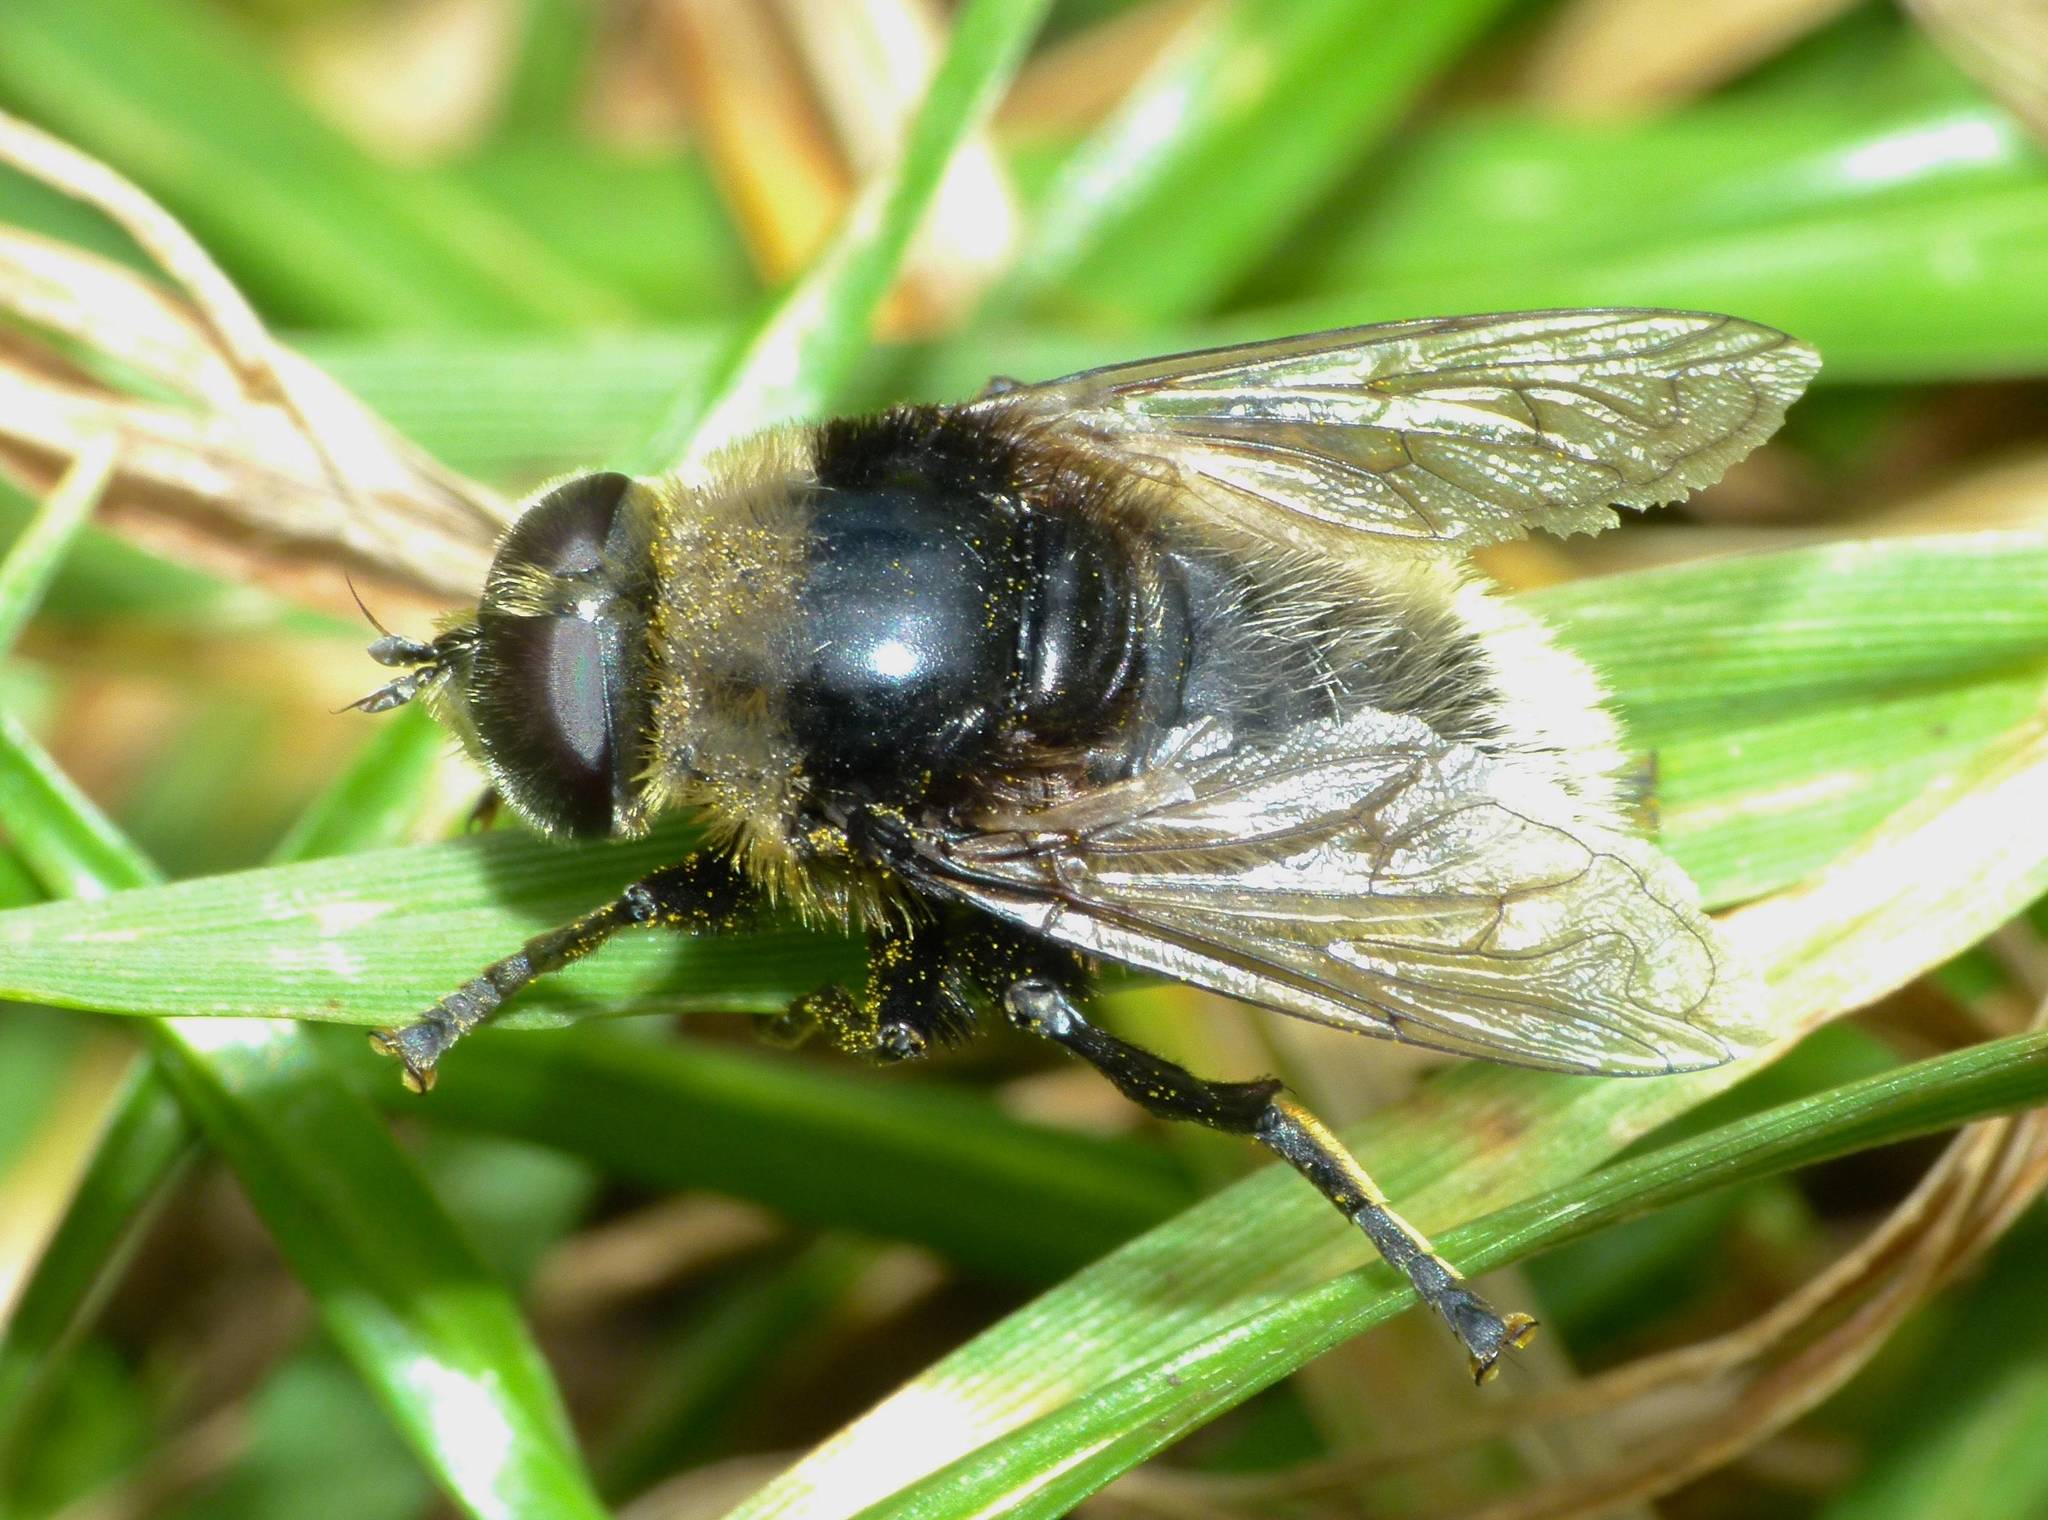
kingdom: Animalia
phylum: Arthropoda
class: Insecta
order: Diptera
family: Syrphidae
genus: Merodon
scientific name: Merodon equestris
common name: Greater bulb-fly
